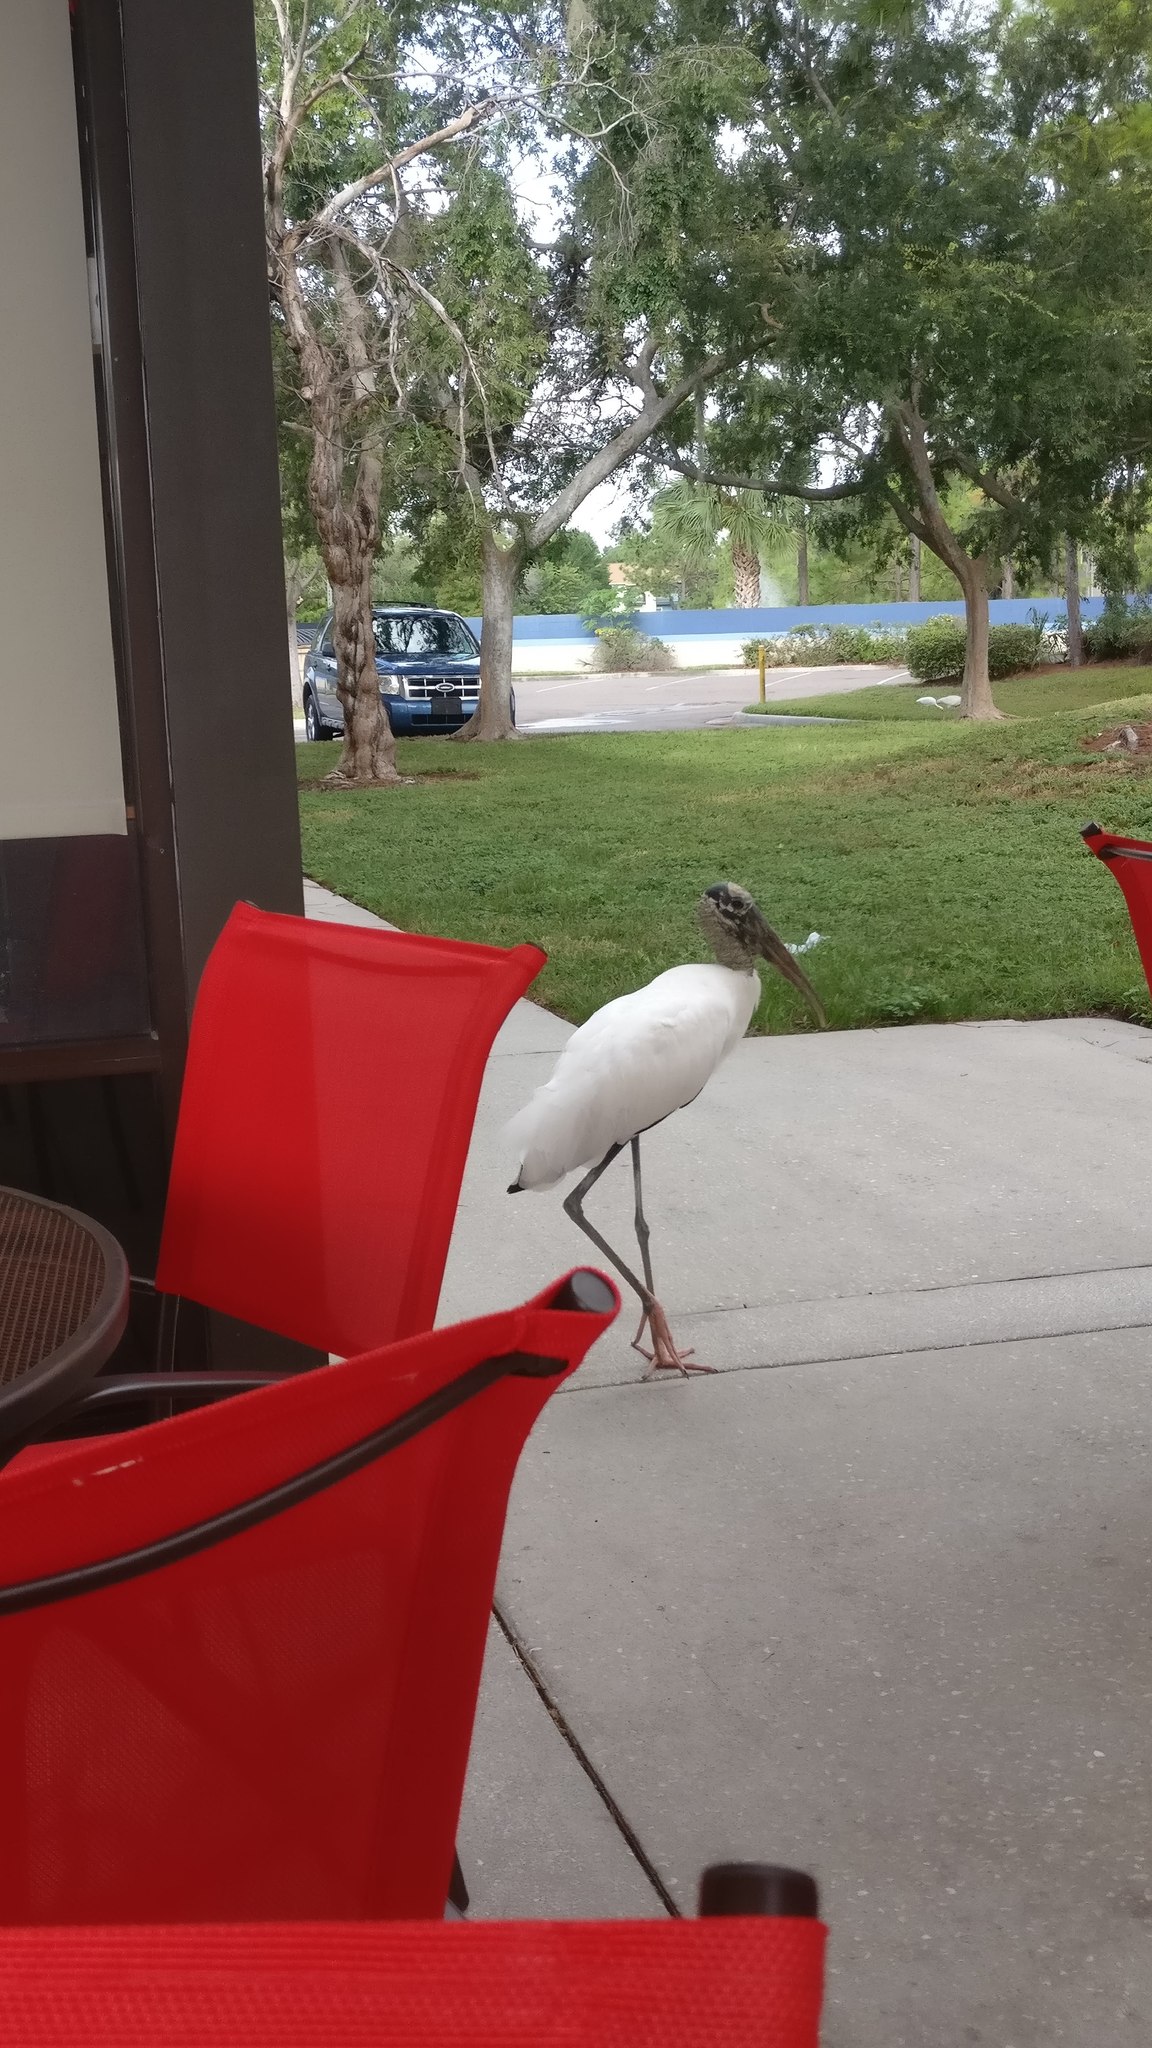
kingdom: Animalia
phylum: Chordata
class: Aves
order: Ciconiiformes
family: Ciconiidae
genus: Mycteria
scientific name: Mycteria americana
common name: Wood stork
